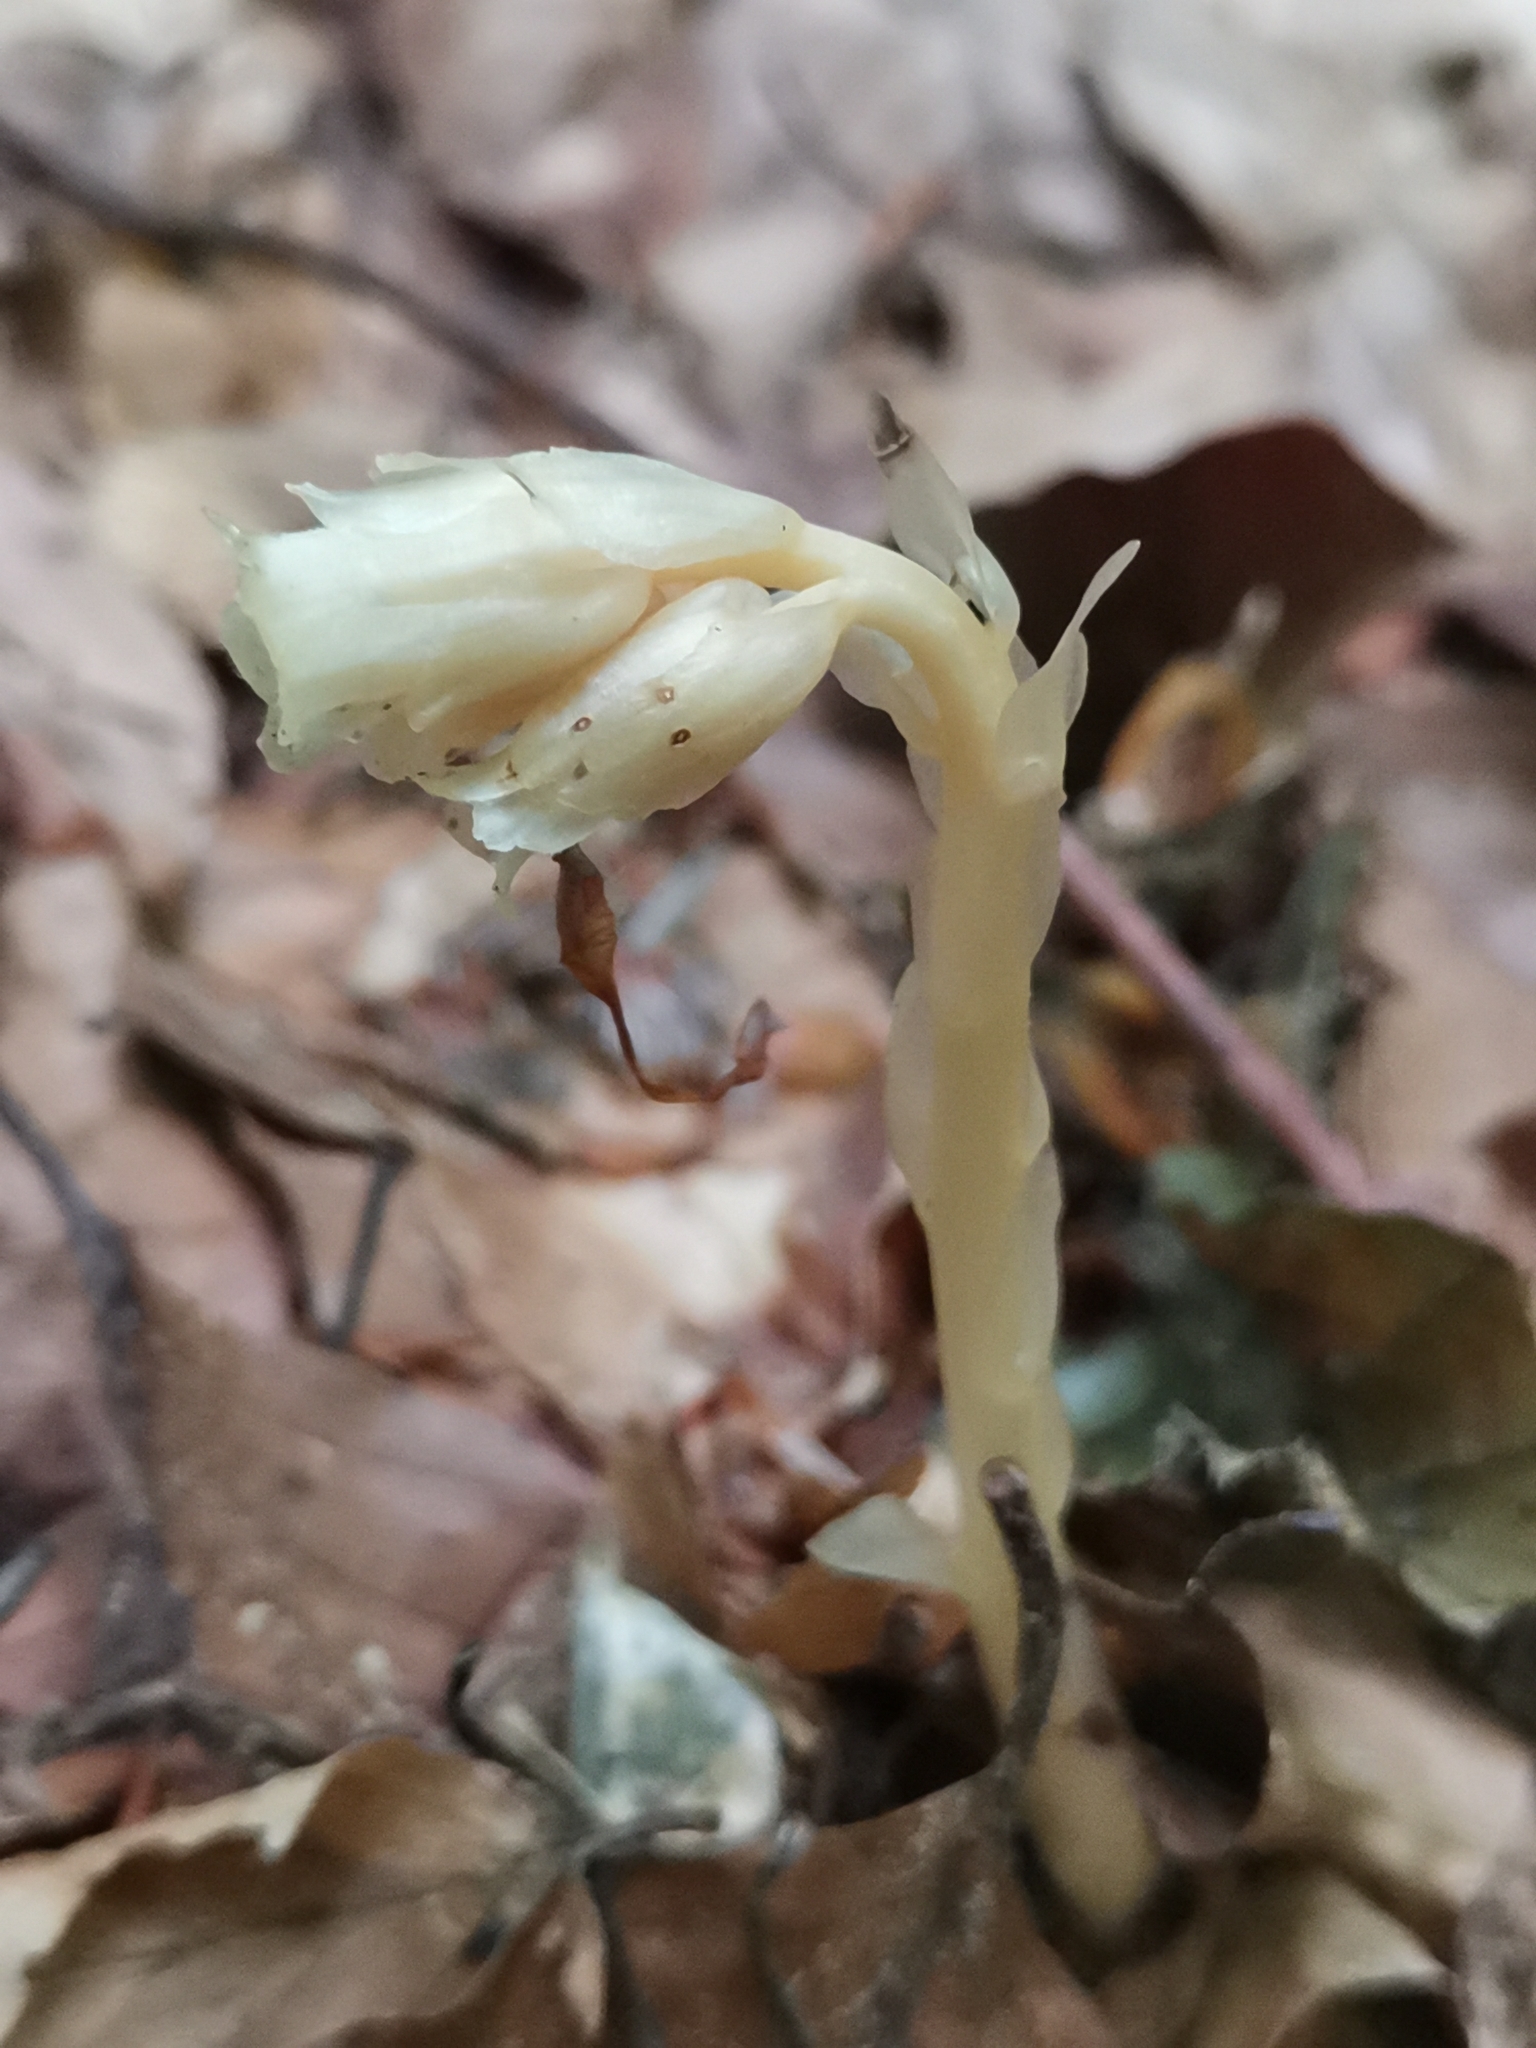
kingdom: Plantae
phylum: Tracheophyta
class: Magnoliopsida
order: Ericales
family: Ericaceae
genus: Hypopitys
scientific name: Hypopitys hypophegea
